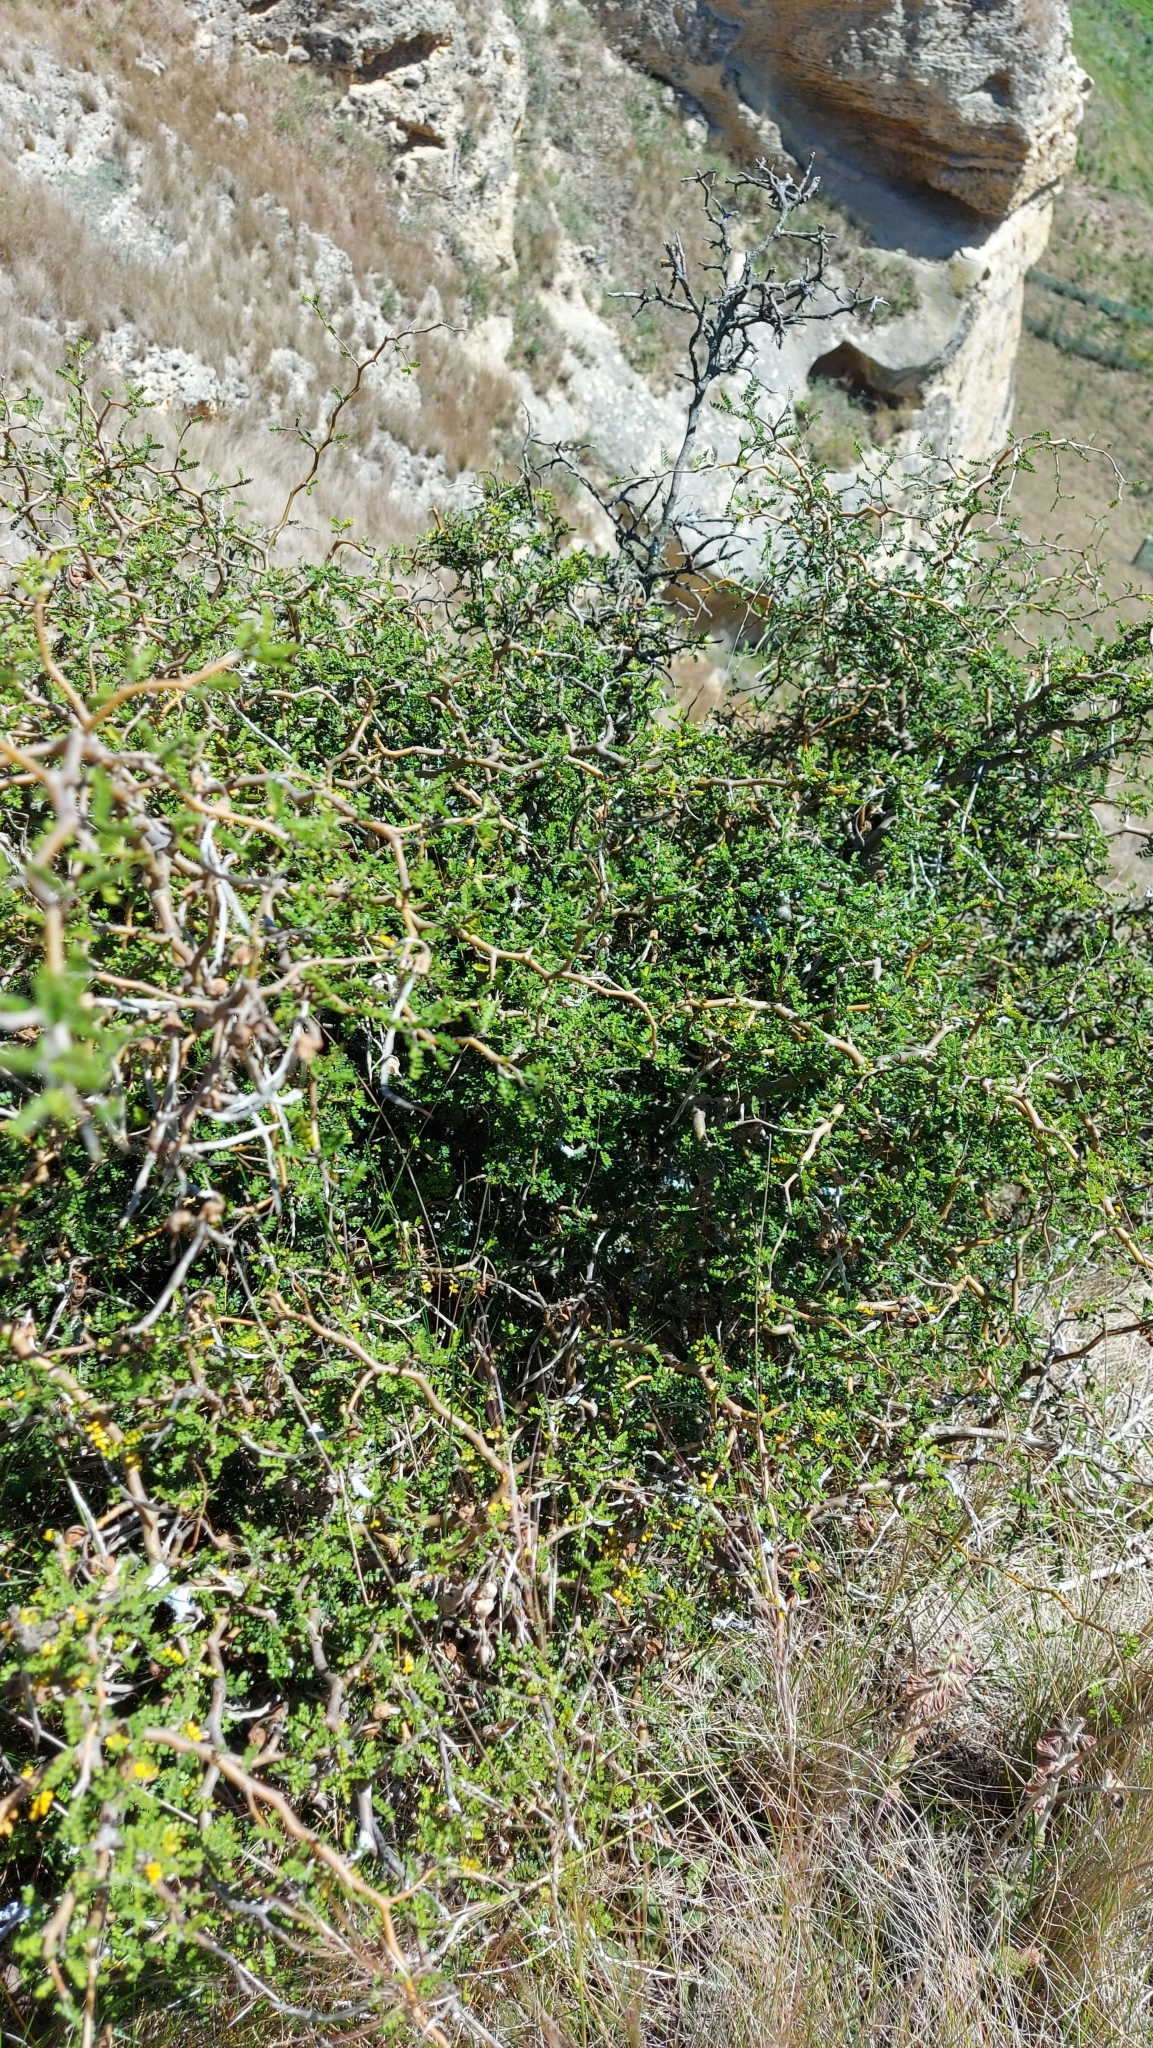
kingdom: Plantae
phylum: Tracheophyta
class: Magnoliopsida
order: Fabales
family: Fabaceae
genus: Sophora
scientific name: Sophora prostrata
